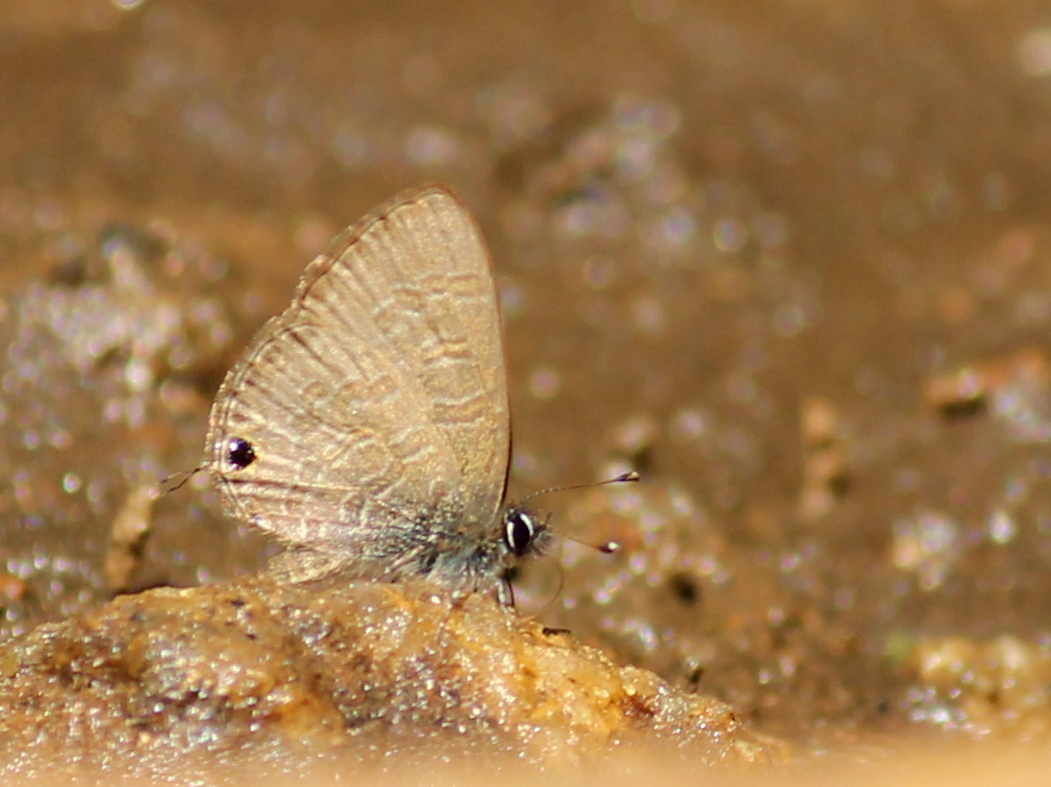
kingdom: Animalia
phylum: Arthropoda
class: Insecta
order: Lepidoptera
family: Lycaenidae
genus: Prosotas
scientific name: Prosotas nora
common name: Common line blue
